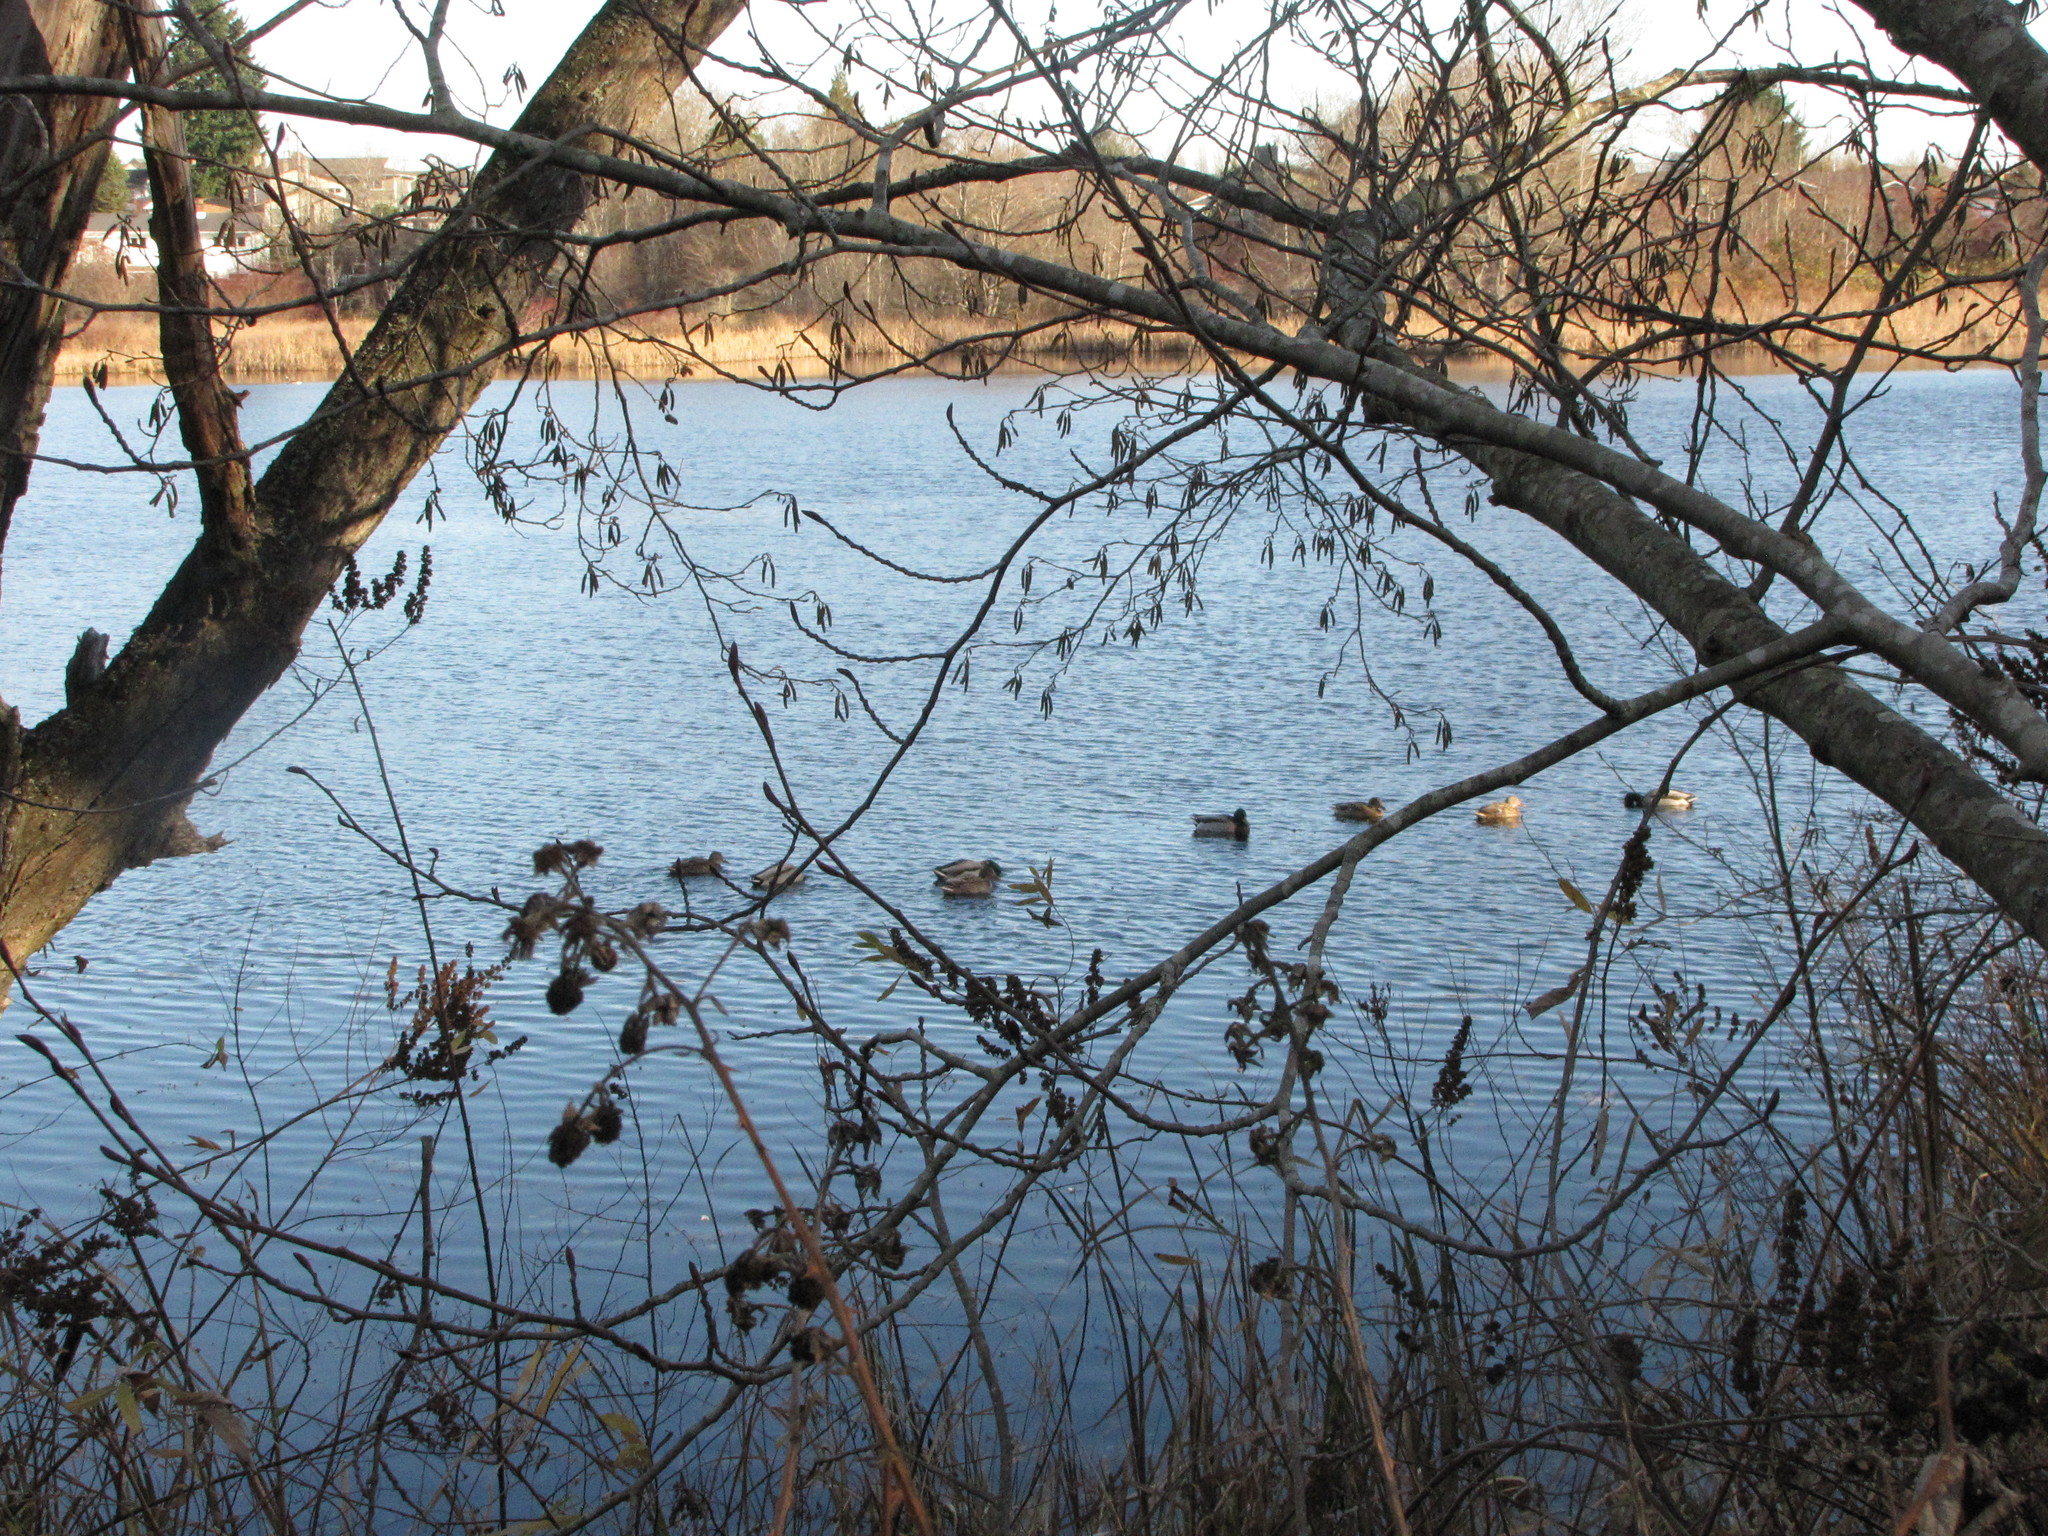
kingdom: Animalia
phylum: Chordata
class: Aves
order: Anseriformes
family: Anatidae
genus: Anas
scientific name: Anas platyrhynchos
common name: Mallard
